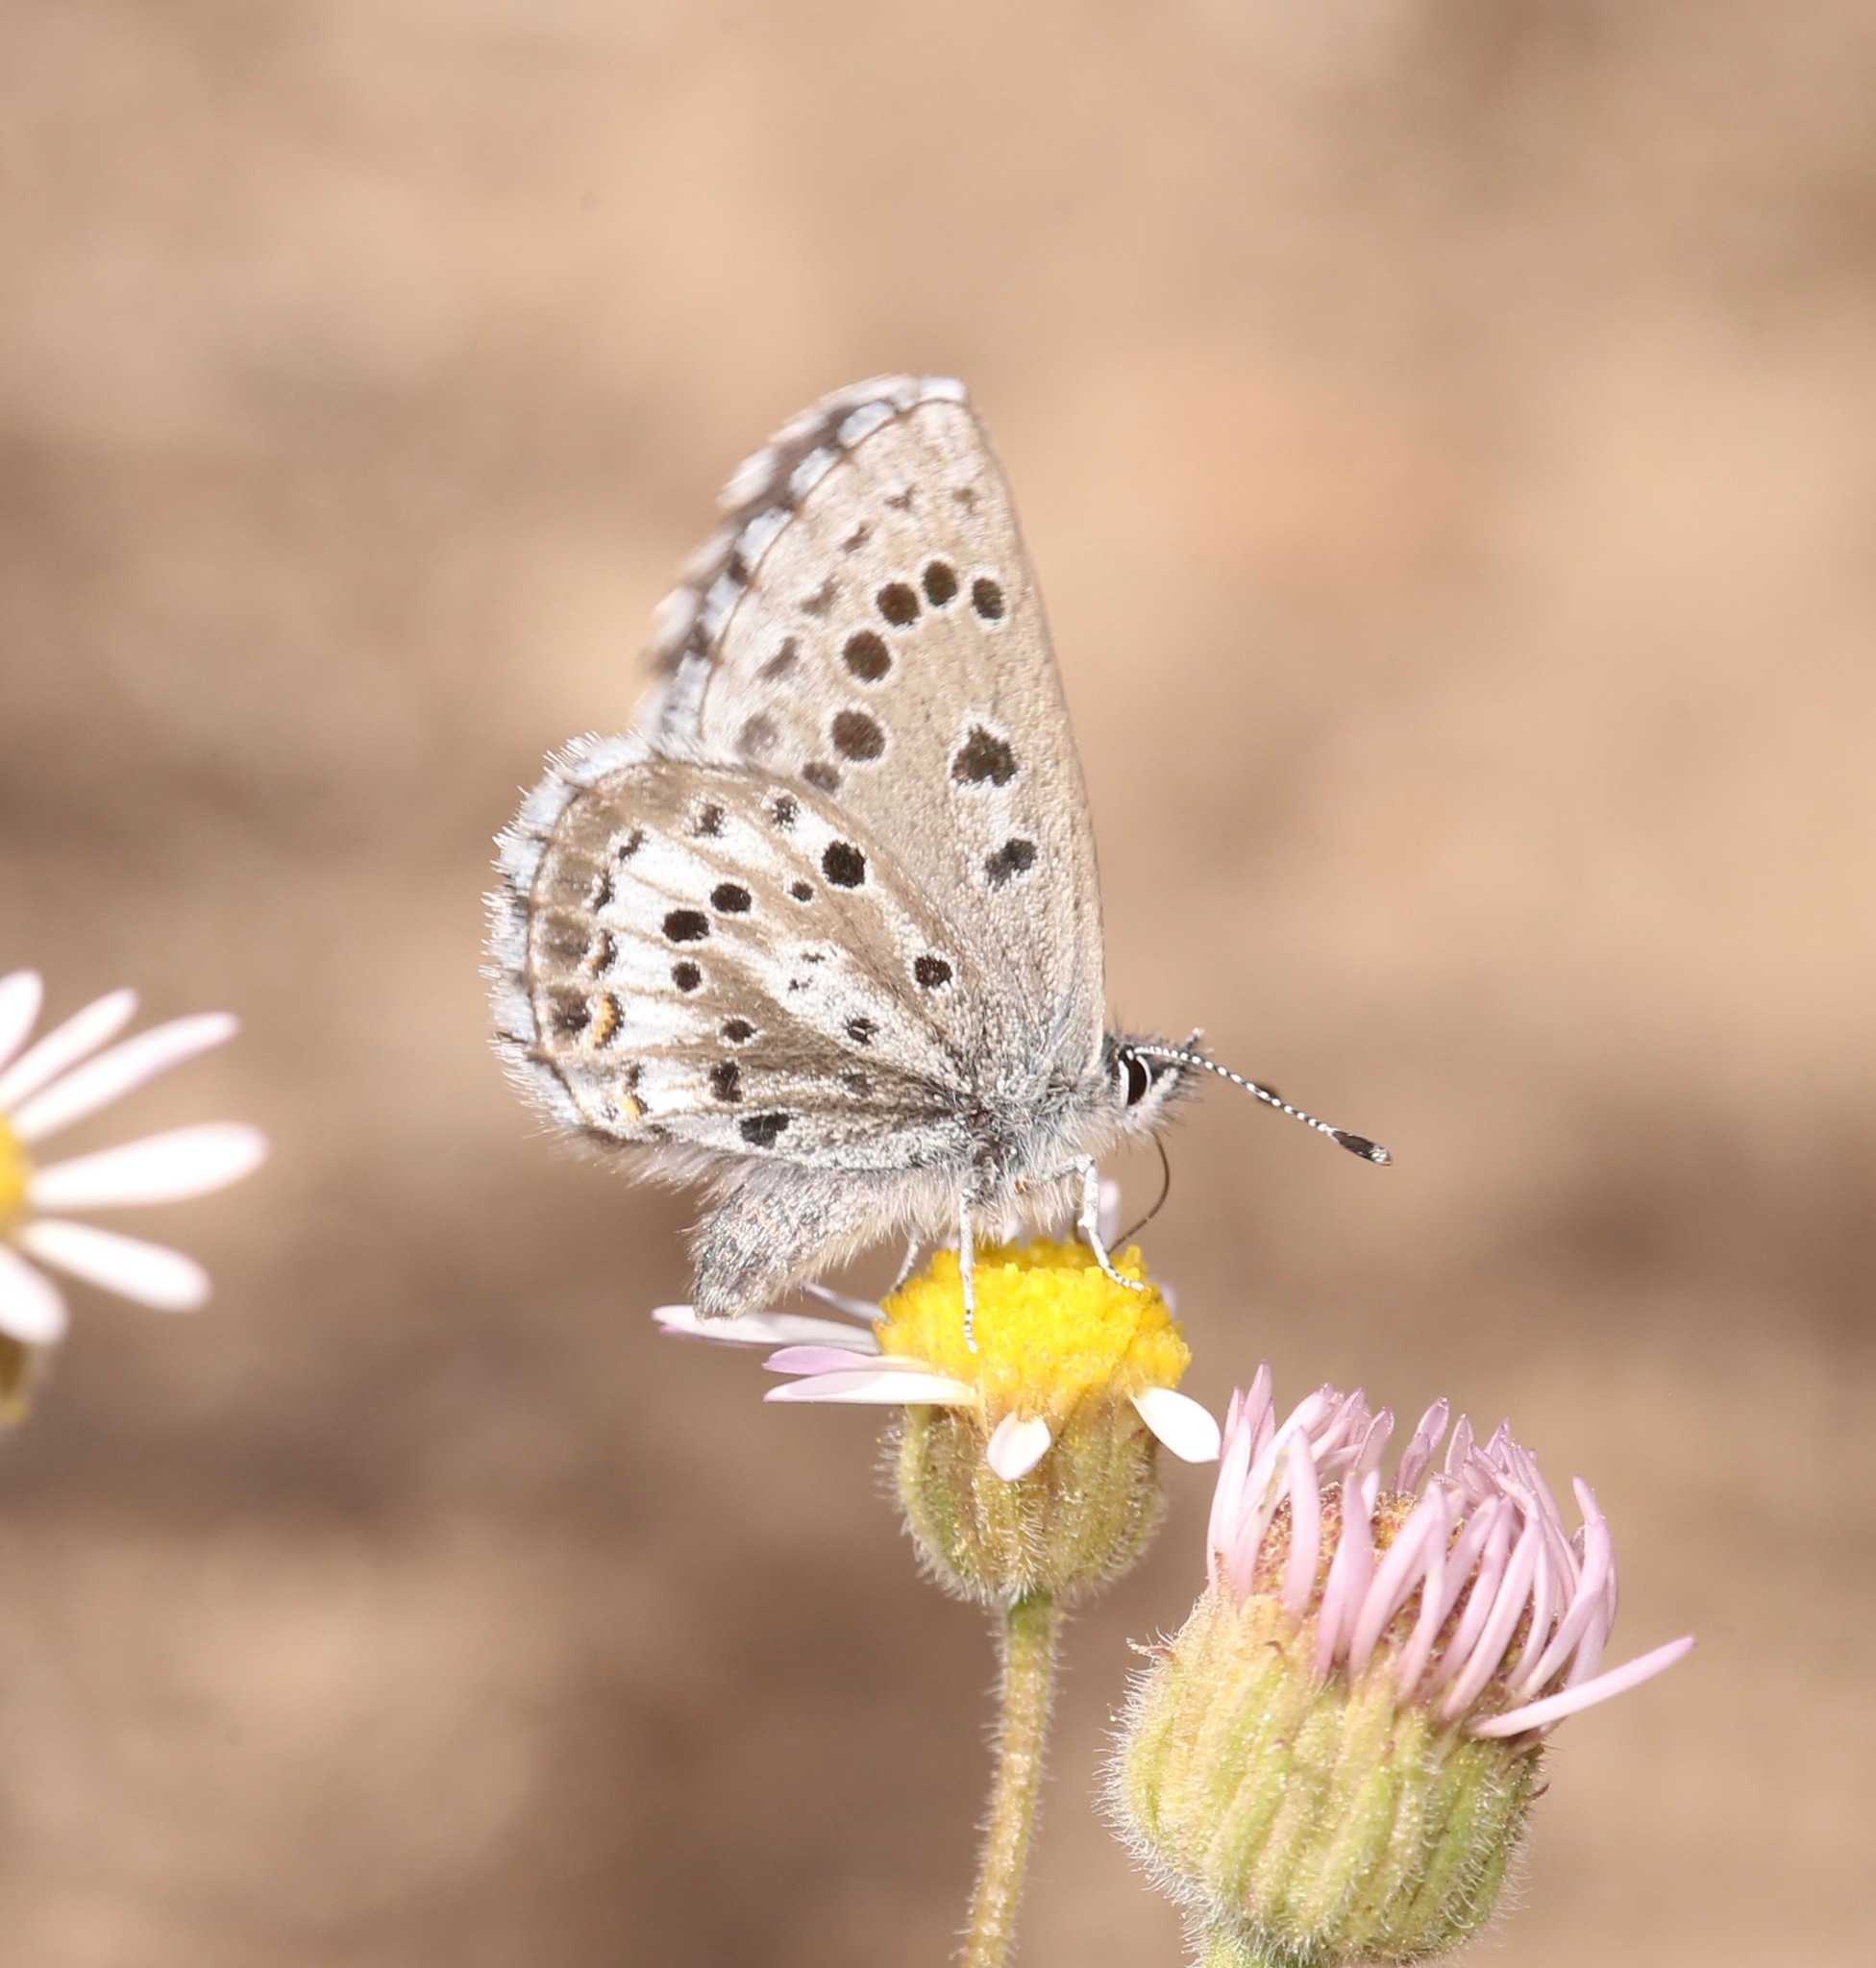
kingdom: Animalia
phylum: Arthropoda
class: Insecta
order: Lepidoptera
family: Lycaenidae
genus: Glaucopsyche
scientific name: Glaucopsyche piasus
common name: Arrowhead blue
